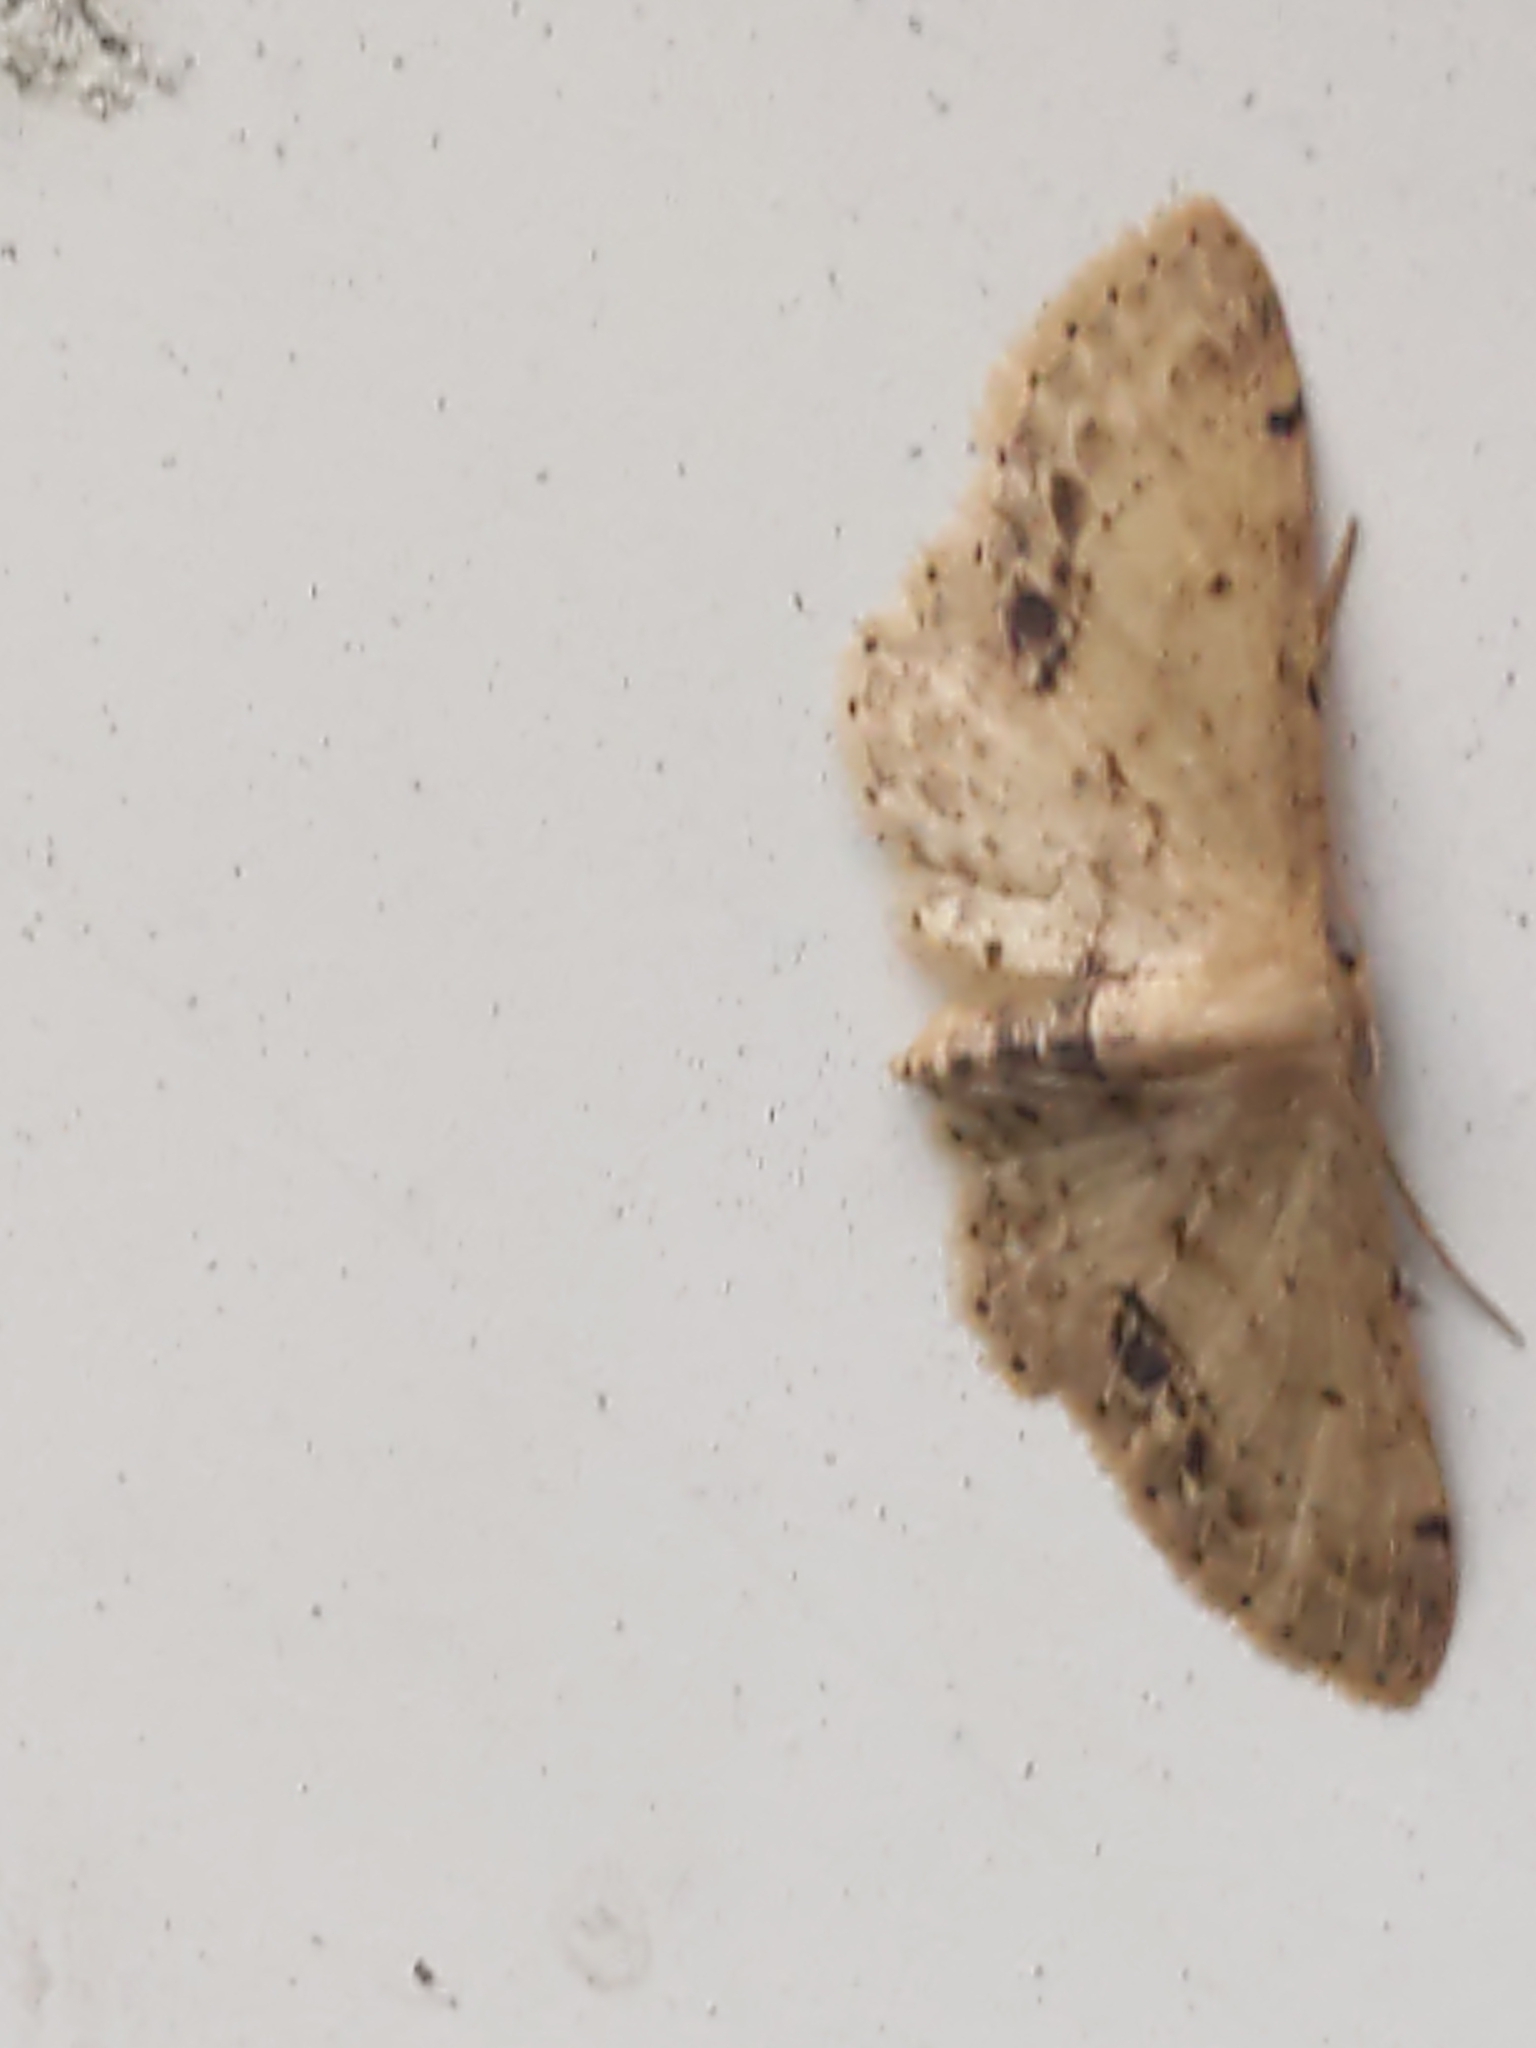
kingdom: Animalia
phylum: Arthropoda
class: Insecta
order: Lepidoptera
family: Geometridae
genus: Idaea
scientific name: Idaea dimidiata
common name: Single-dotted wave
